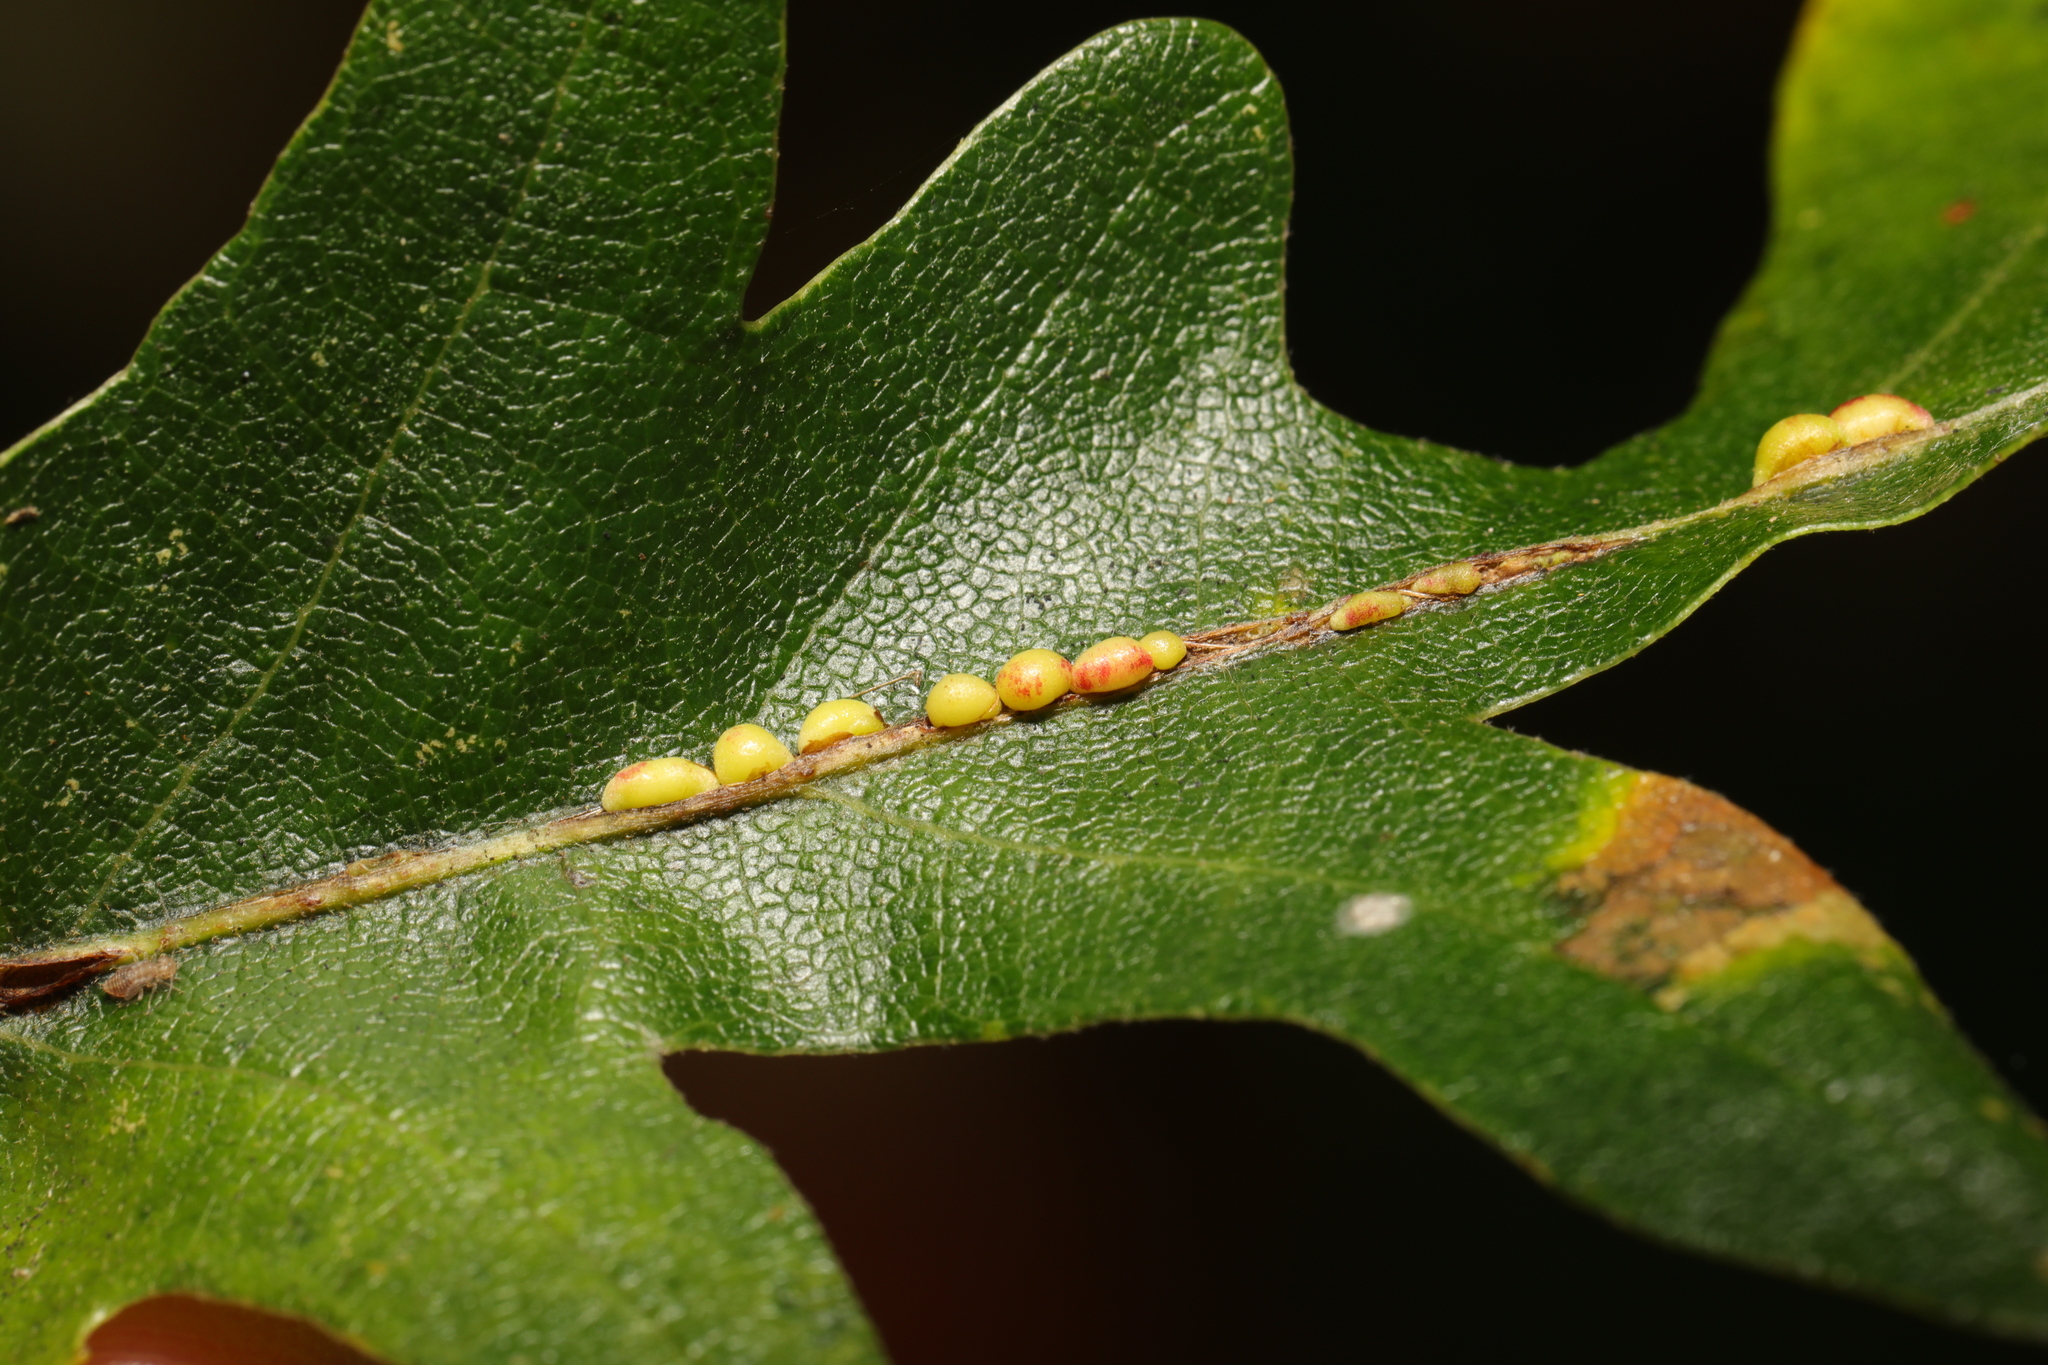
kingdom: Animalia
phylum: Arthropoda
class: Insecta
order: Hymenoptera
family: Cynipidae
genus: Neuroterus
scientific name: Neuroterus saliens
